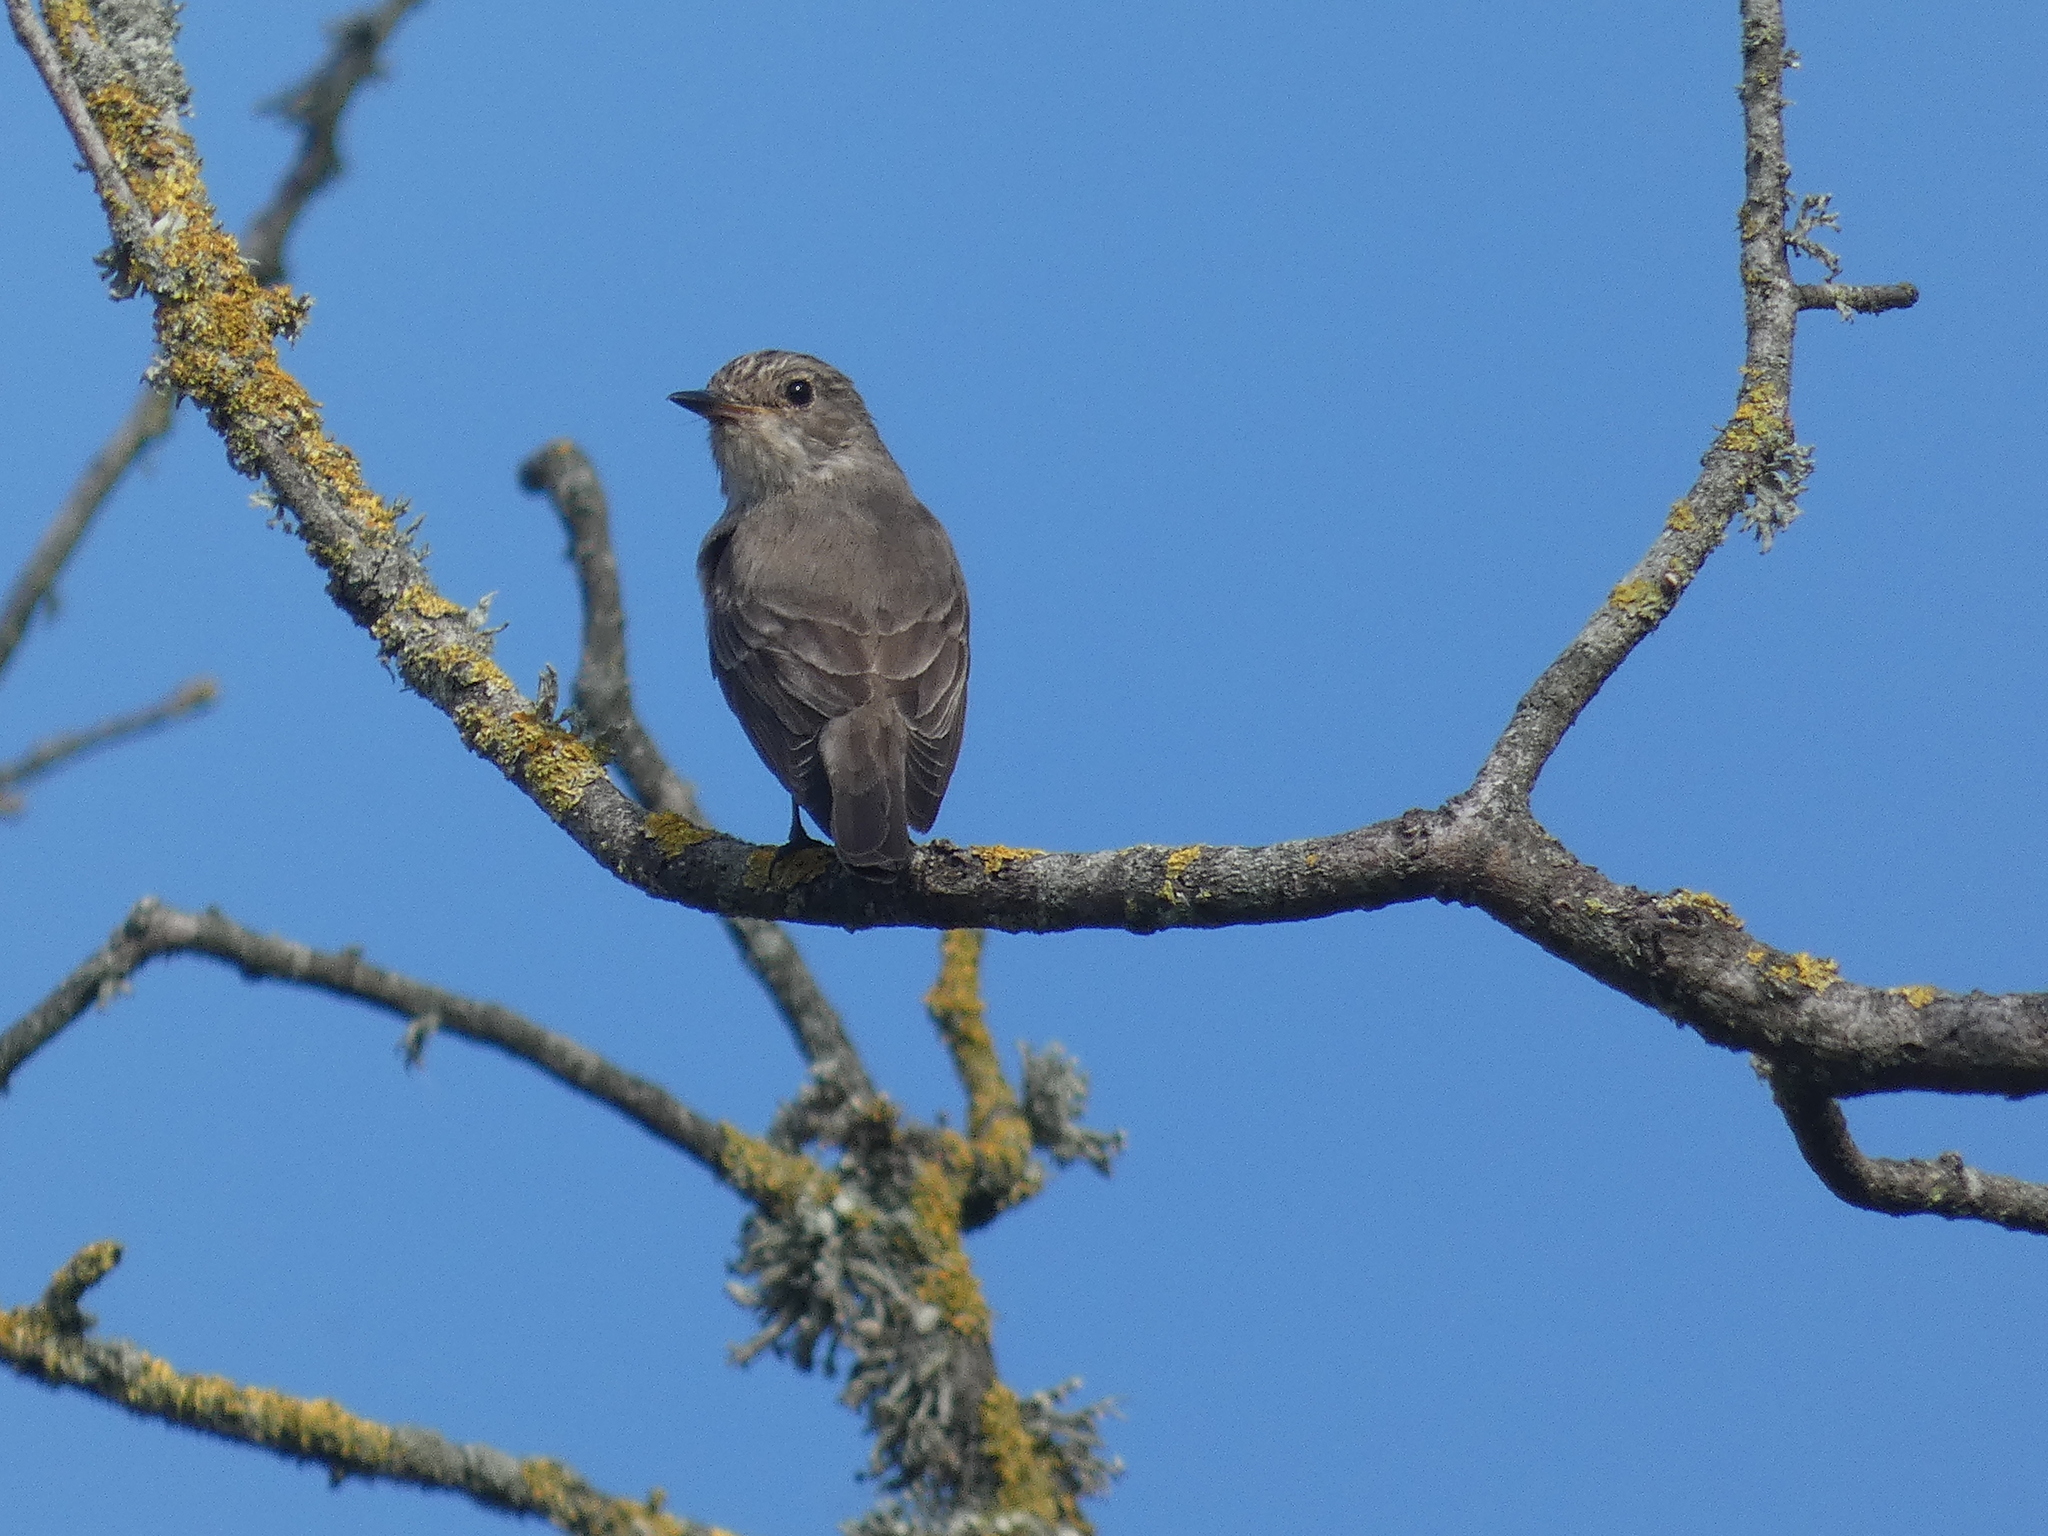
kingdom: Animalia
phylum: Chordata
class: Aves
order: Passeriformes
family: Muscicapidae
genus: Muscicapa
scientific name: Muscicapa striata
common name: Spotted flycatcher
